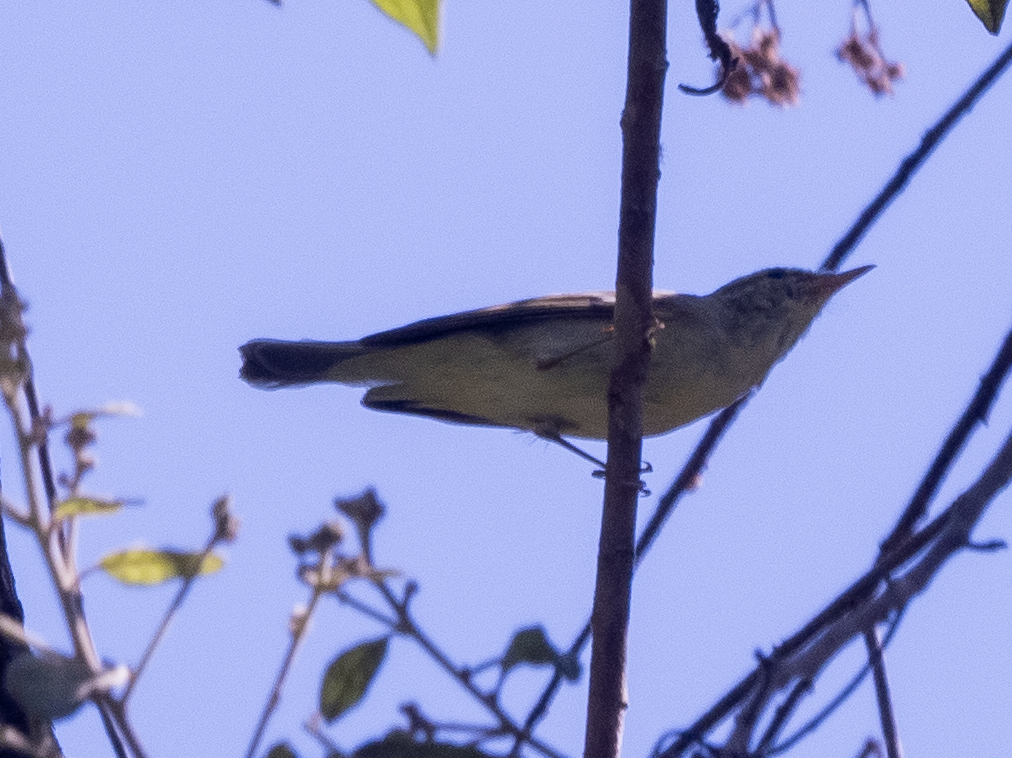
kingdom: Animalia
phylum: Chordata
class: Aves
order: Passeriformes
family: Phylloscopidae
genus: Phylloscopus
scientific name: Phylloscopus magnirostris
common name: Large-billed leaf warbler
